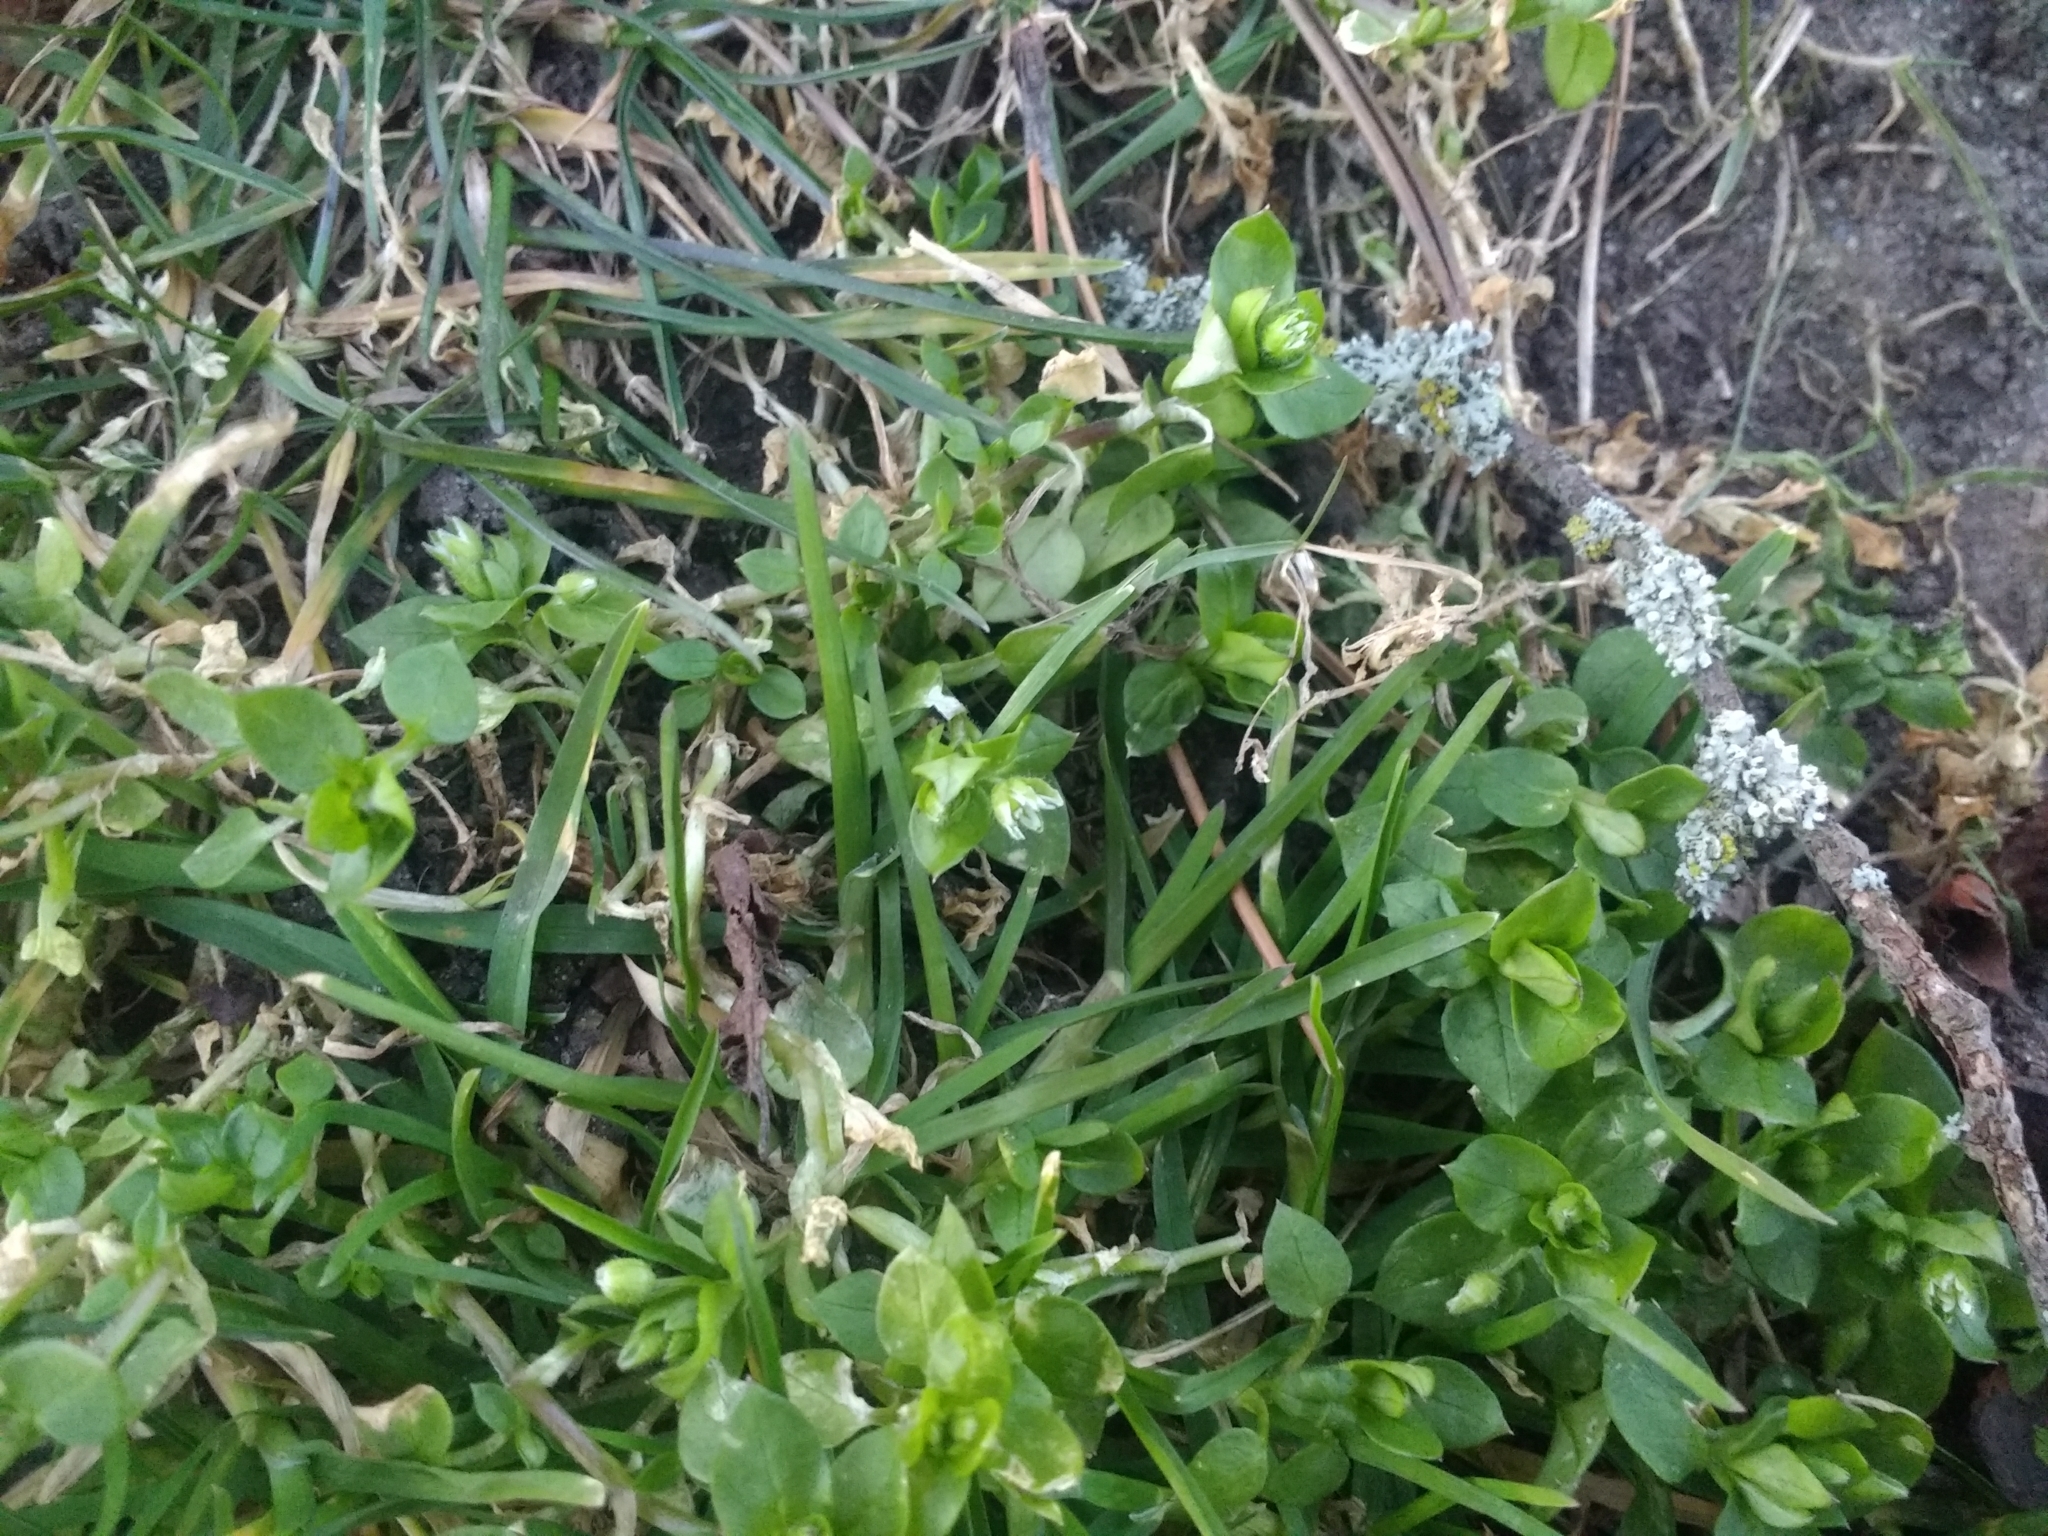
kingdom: Plantae
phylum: Tracheophyta
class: Magnoliopsida
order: Caryophyllales
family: Caryophyllaceae
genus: Stellaria
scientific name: Stellaria media
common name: Common chickweed
